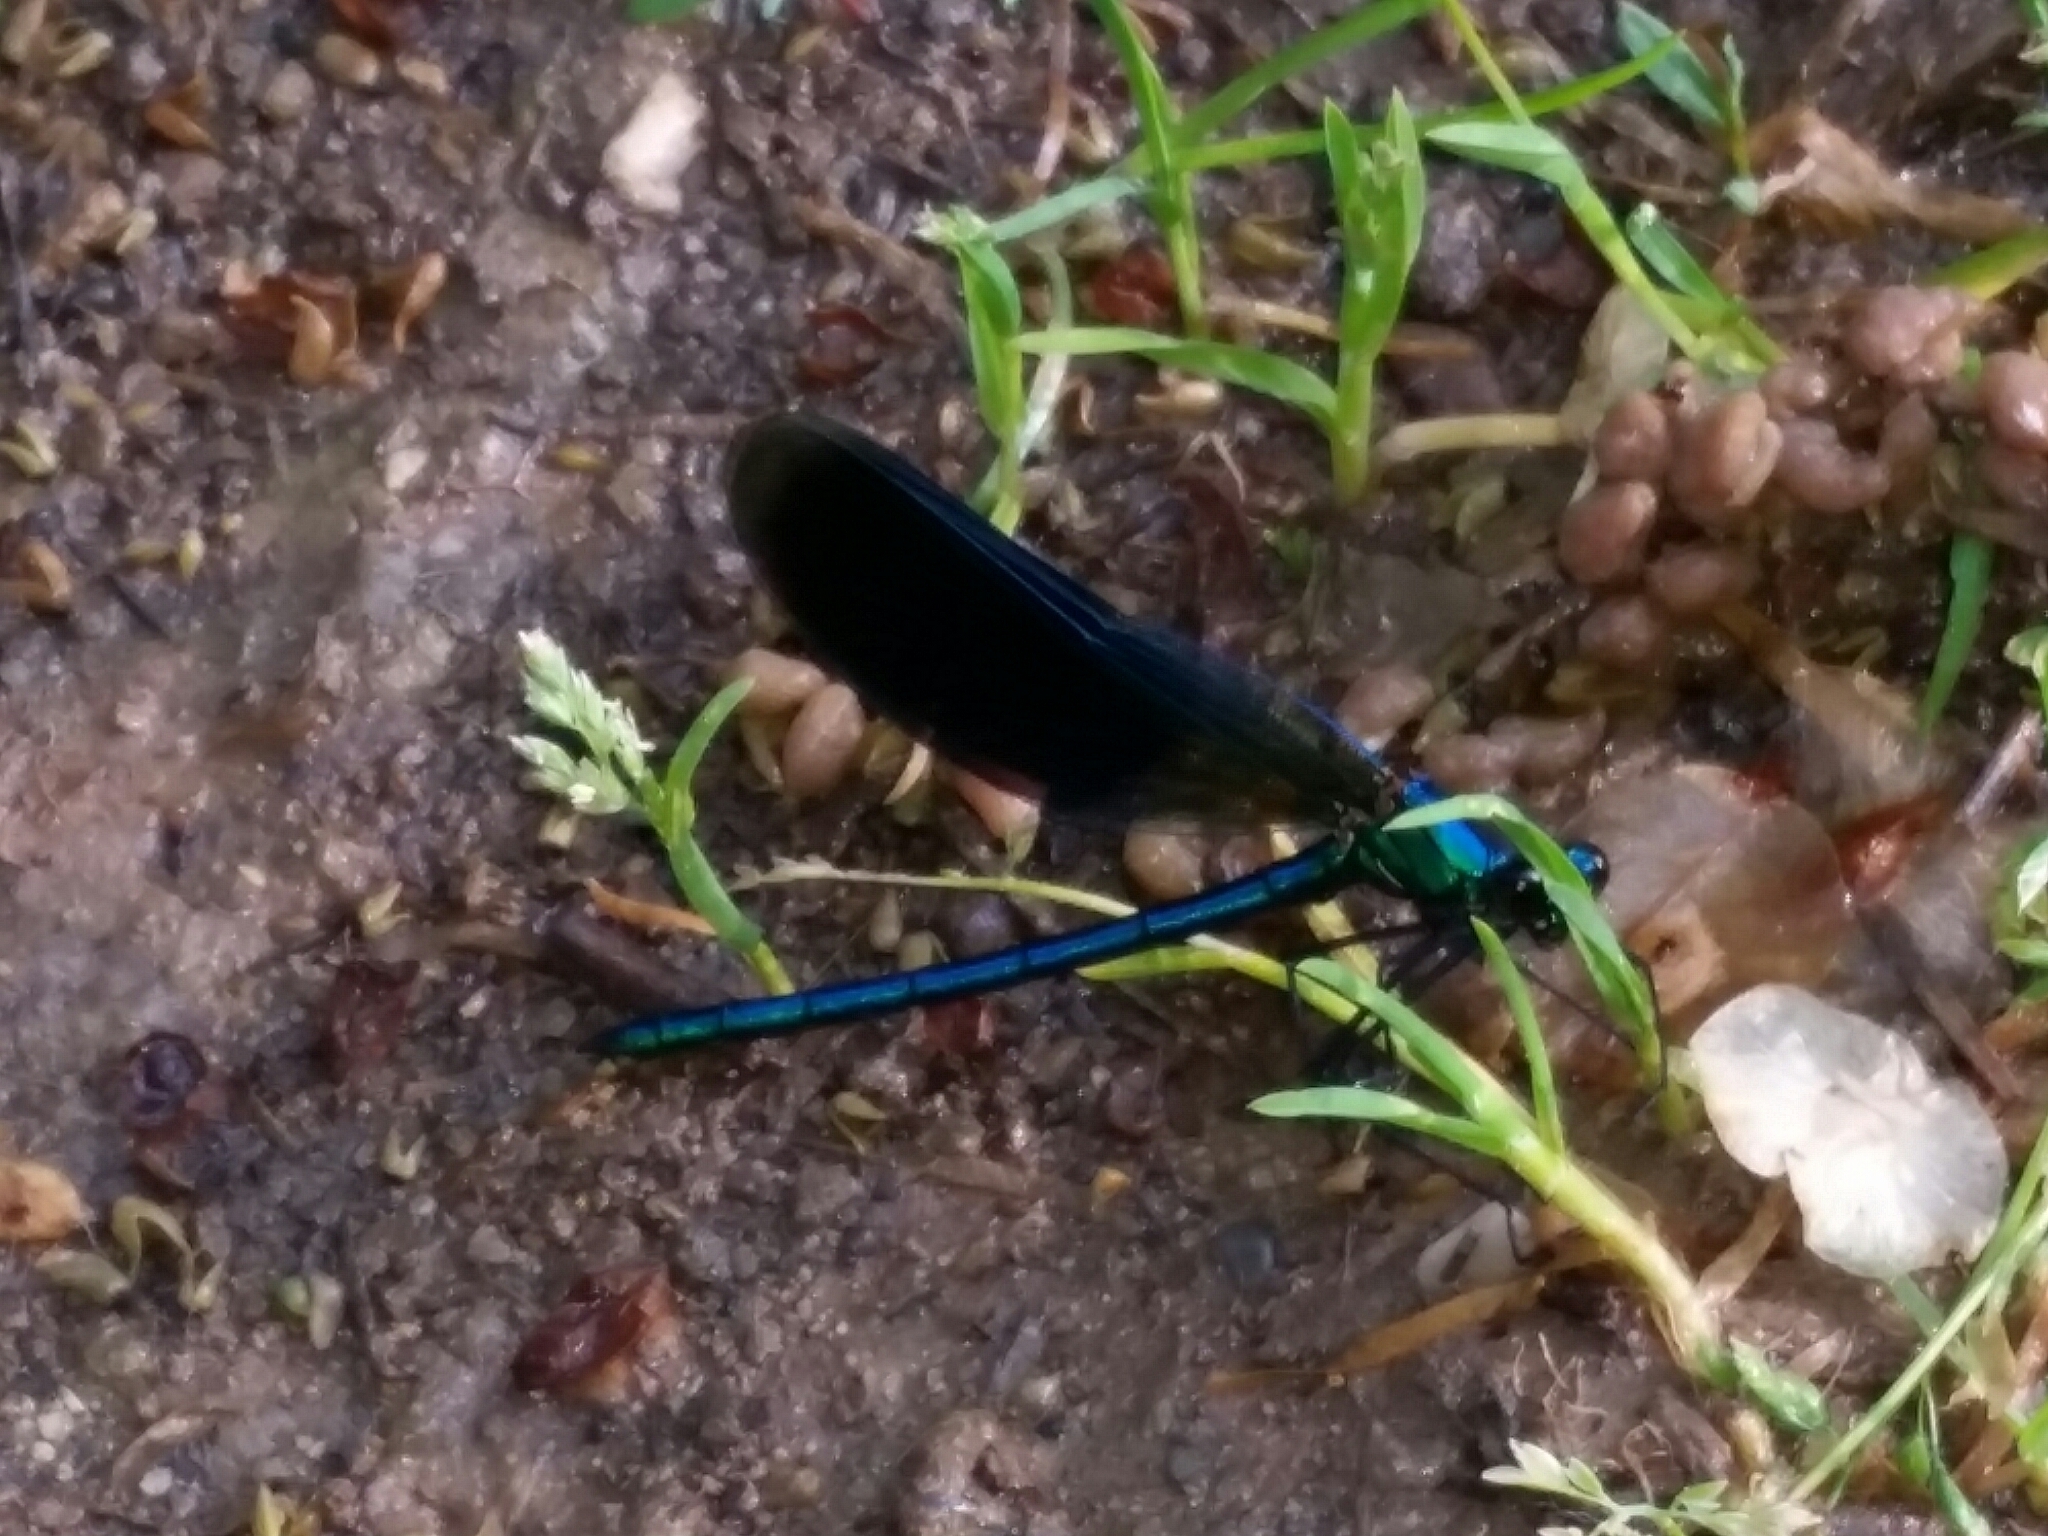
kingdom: Animalia
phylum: Arthropoda
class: Insecta
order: Odonata
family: Calopterygidae
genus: Calopteryx
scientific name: Calopteryx splendens
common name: Banded demoiselle
